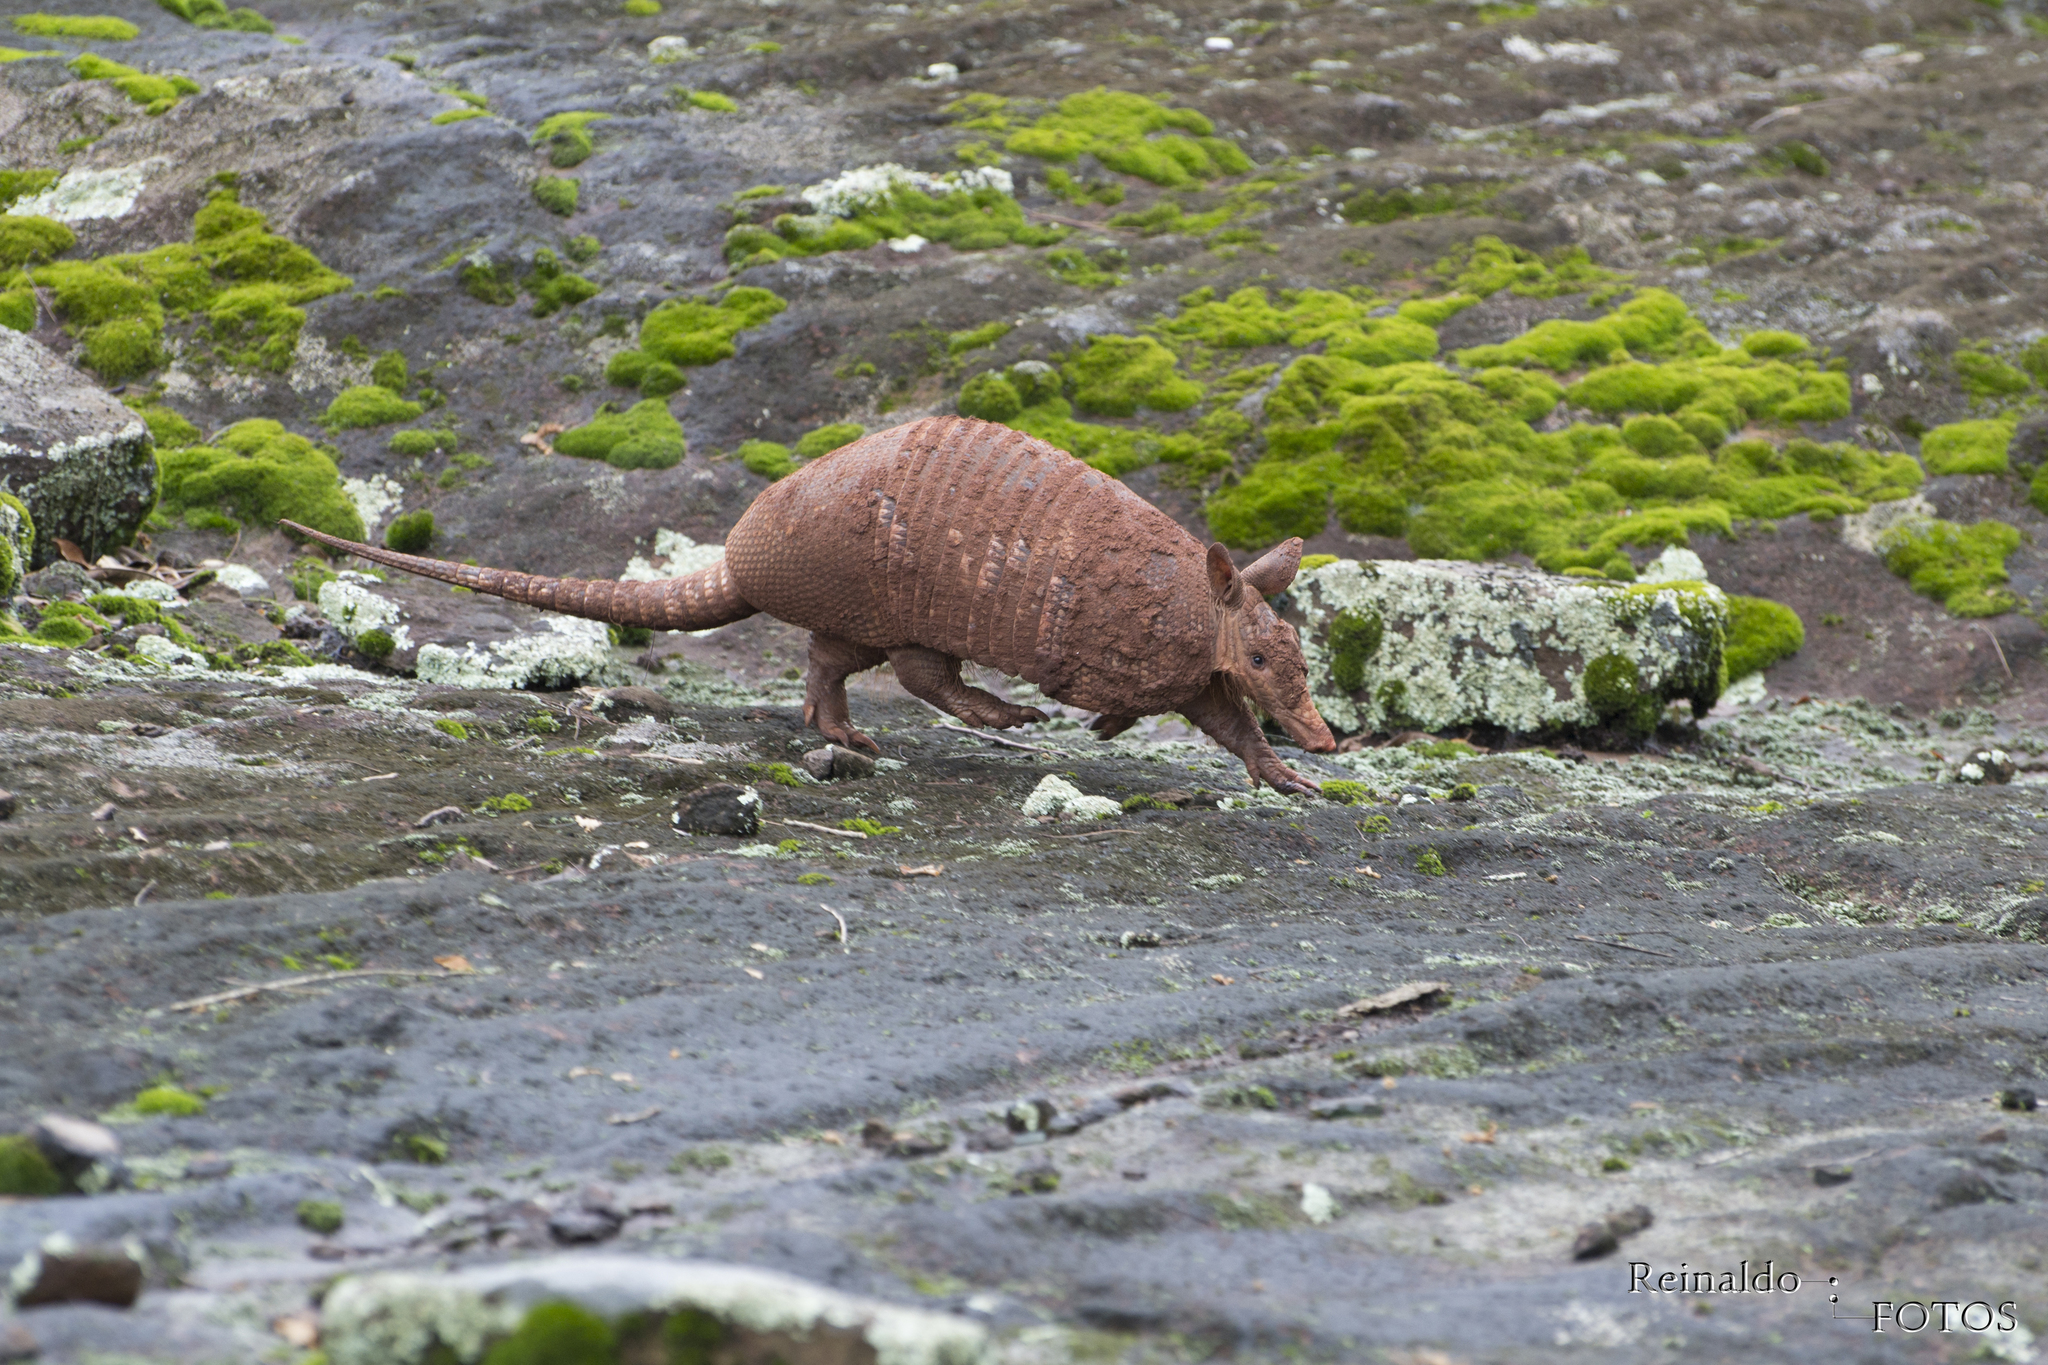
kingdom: Animalia
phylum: Chordata
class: Mammalia
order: Cingulata
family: Dasypodidae
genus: Dasypus
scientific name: Dasypus novemcinctus
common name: Nine-banded armadillo
